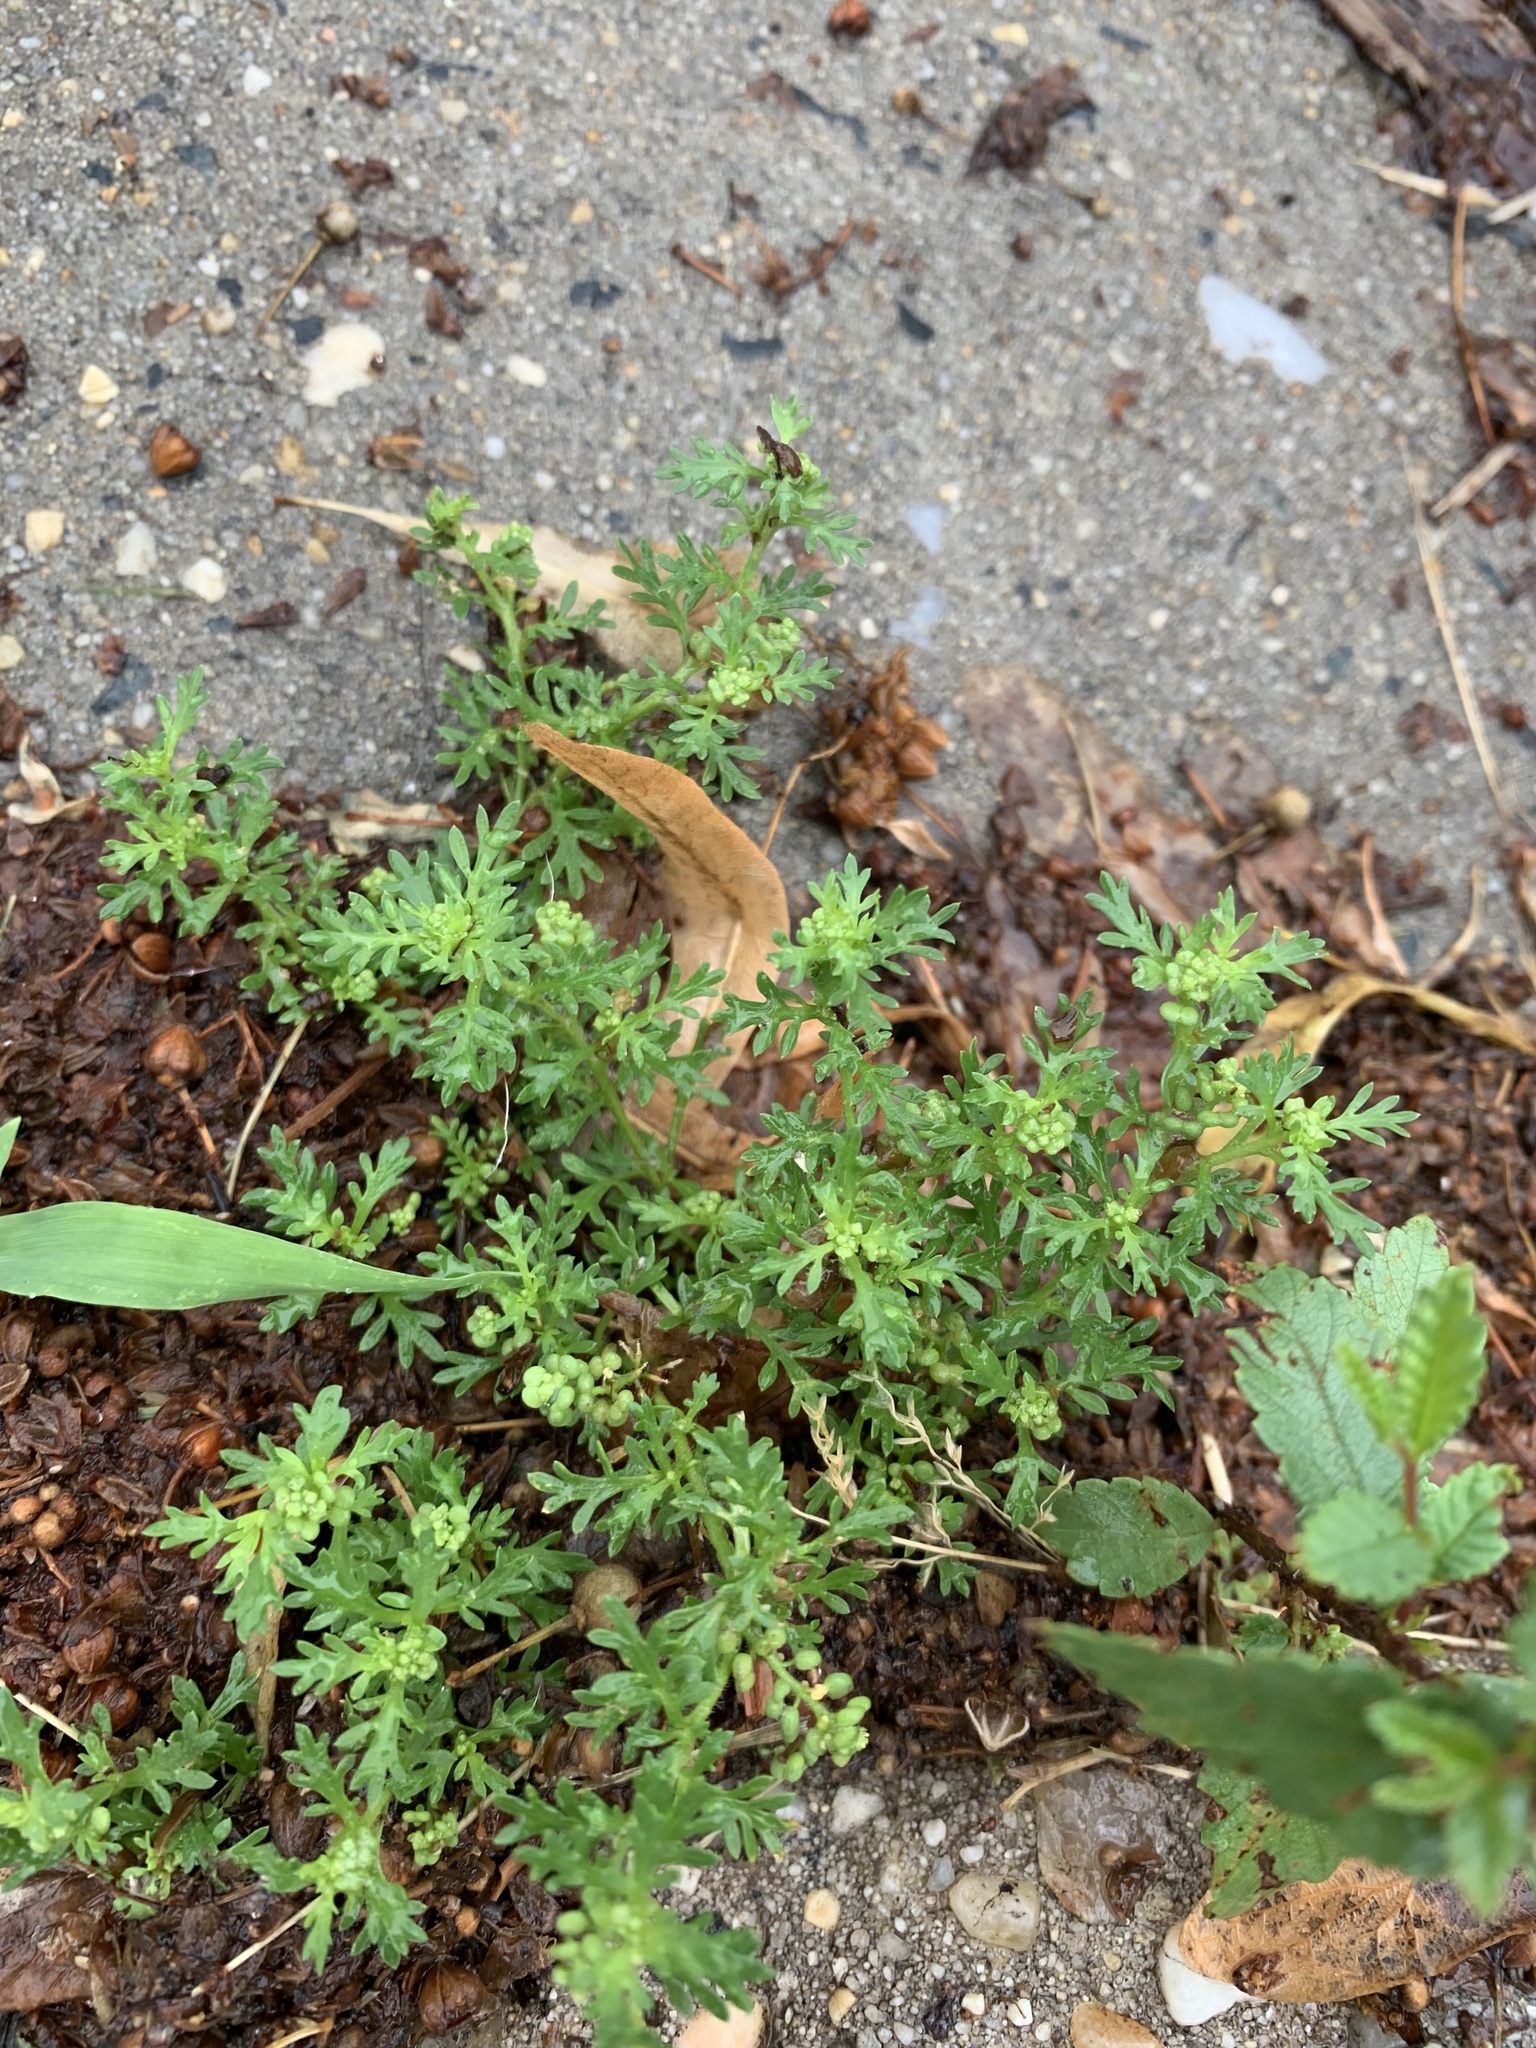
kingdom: Plantae
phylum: Tracheophyta
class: Magnoliopsida
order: Brassicales
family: Brassicaceae
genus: Lepidium
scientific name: Lepidium didymum
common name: Lesser swinecress
